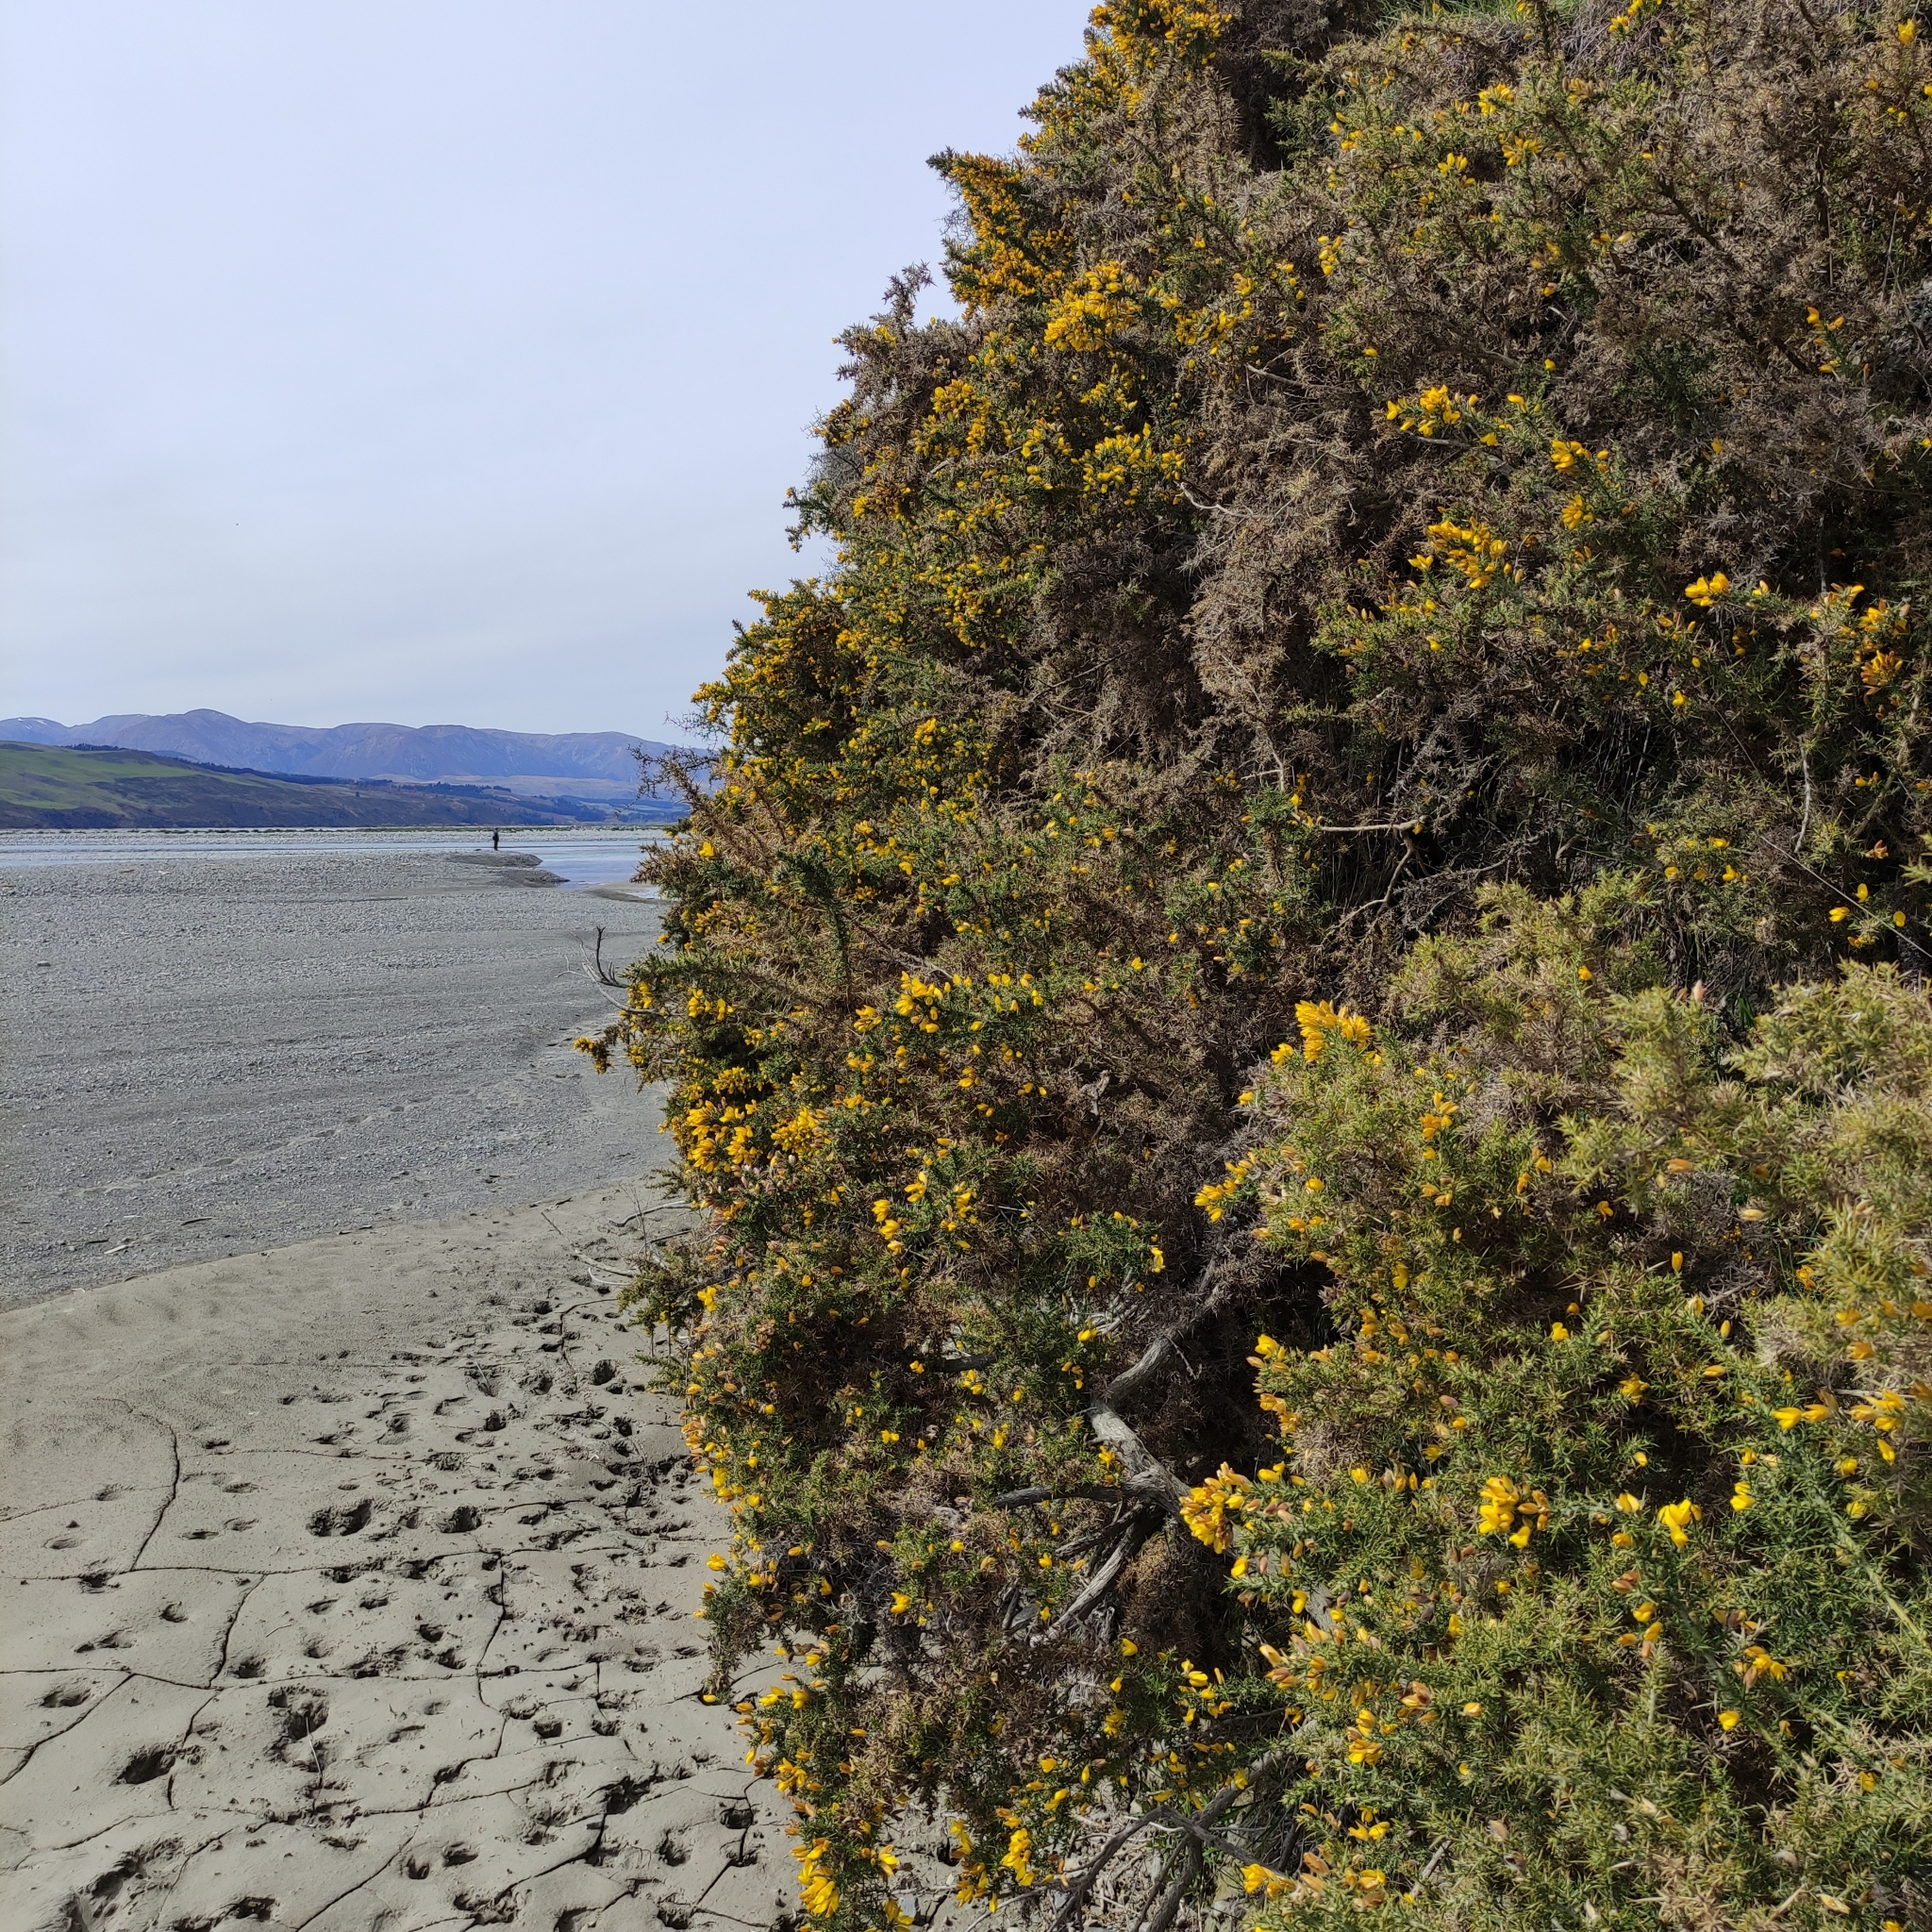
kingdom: Plantae
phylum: Tracheophyta
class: Magnoliopsida
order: Fabales
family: Fabaceae
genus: Ulex
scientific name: Ulex europaeus
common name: Common gorse
